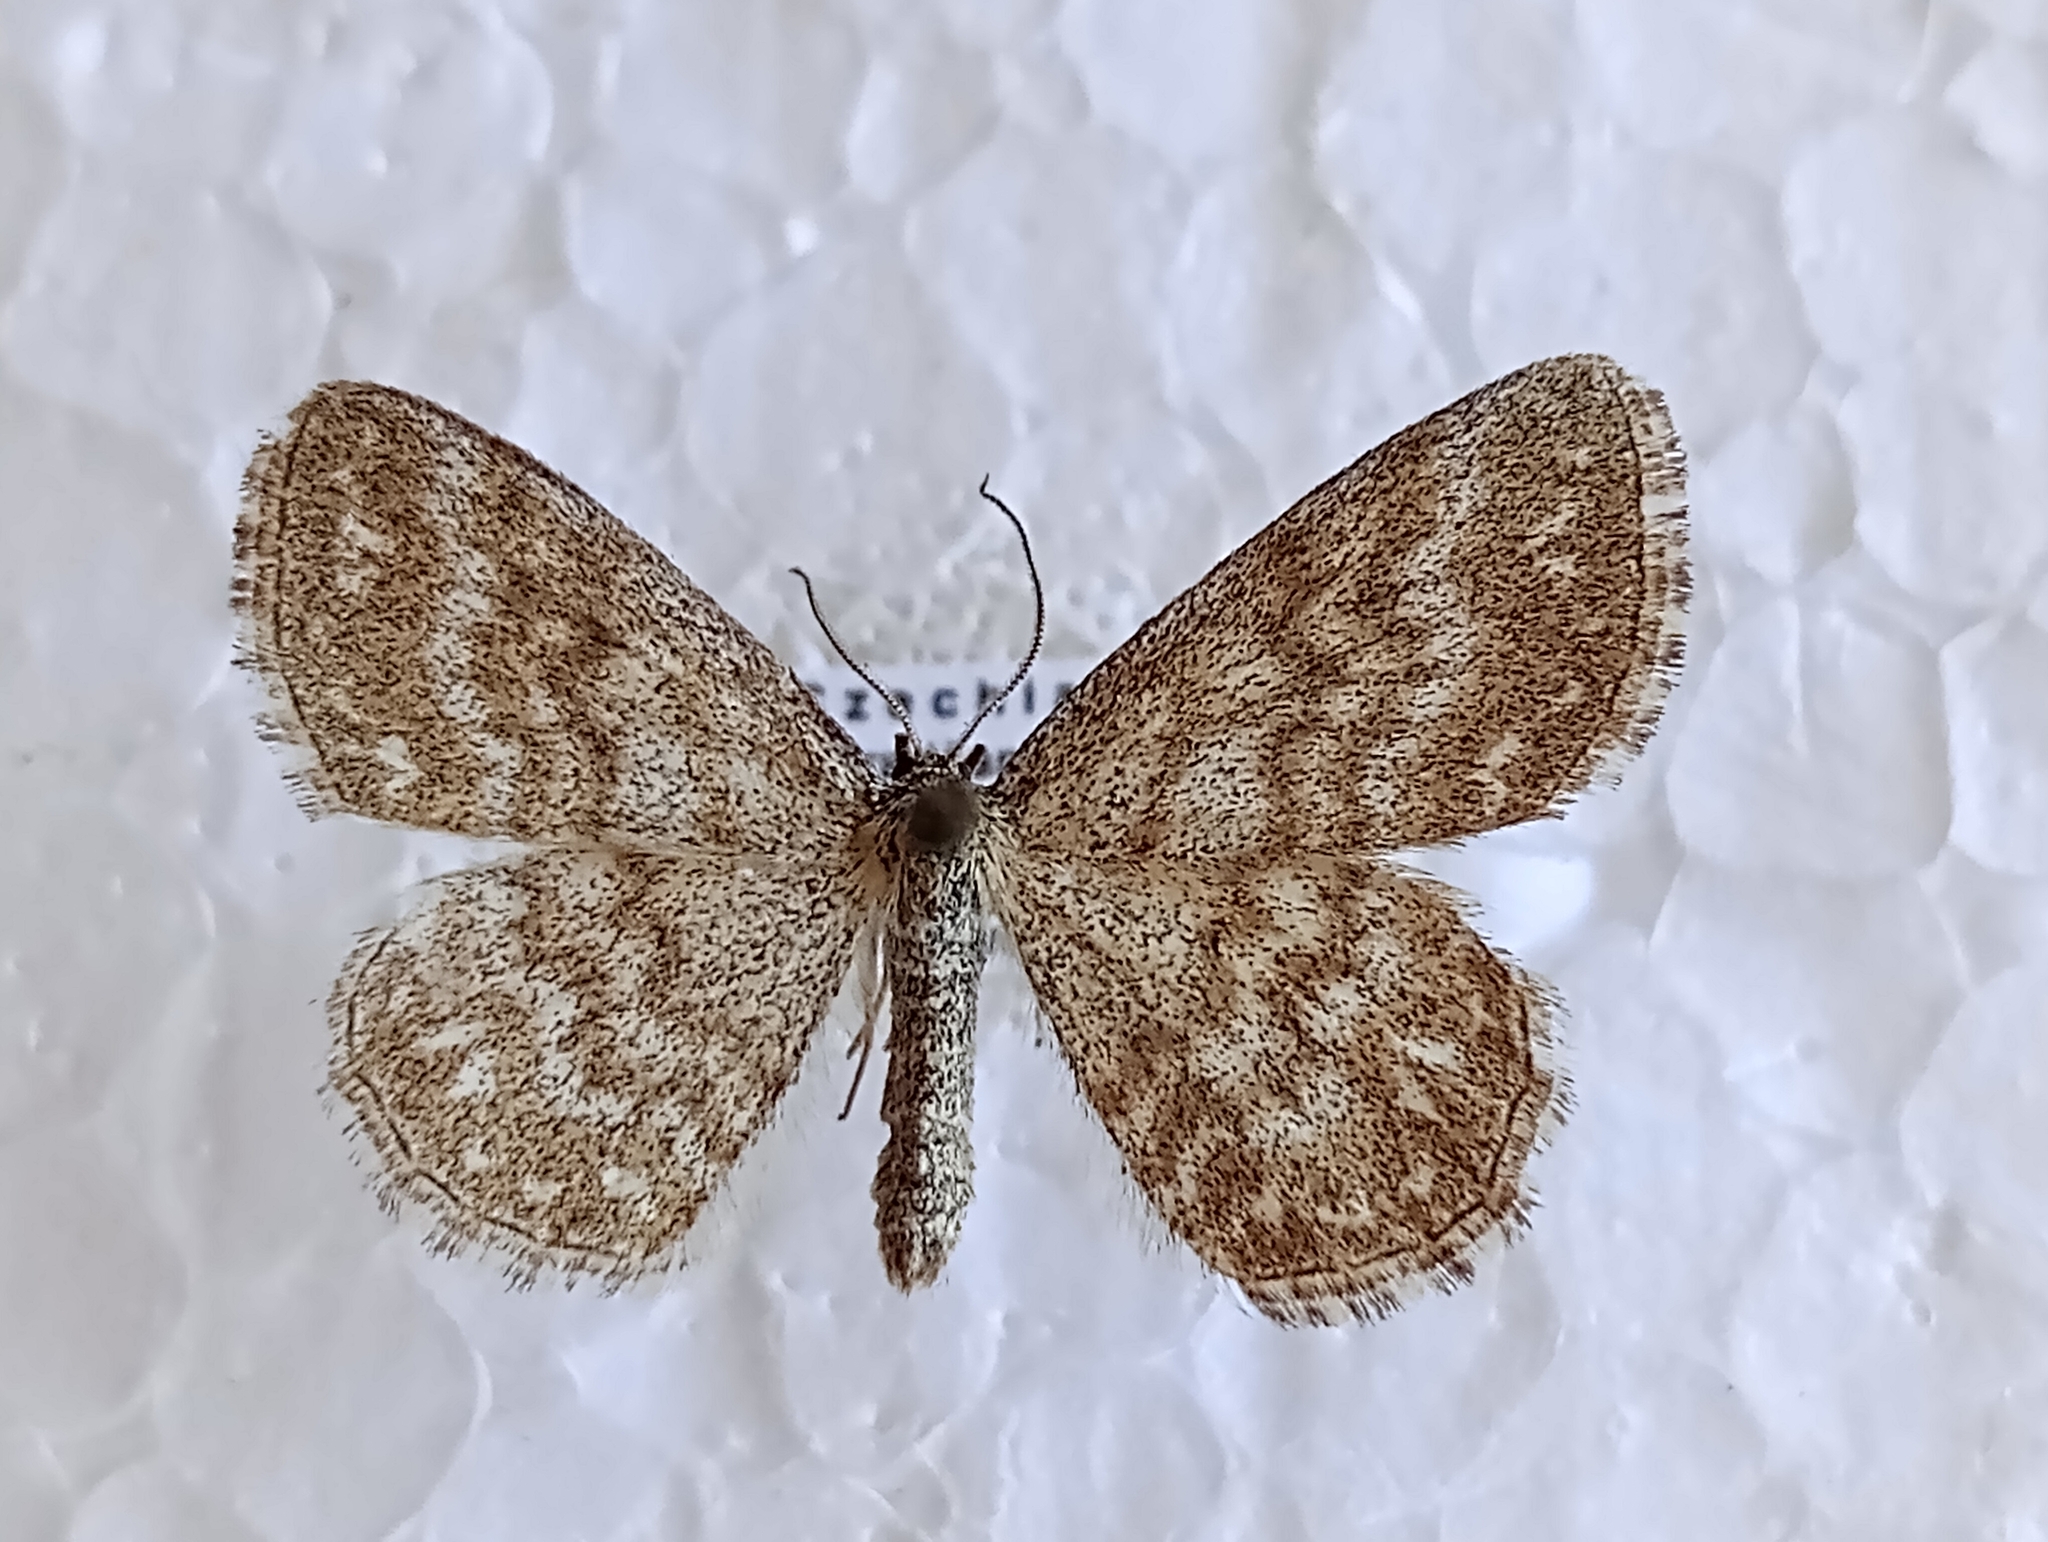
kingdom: Animalia
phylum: Arthropoda
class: Insecta
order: Lepidoptera
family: Geometridae
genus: Scopula
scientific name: Scopula immorata
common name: Lewes wave
